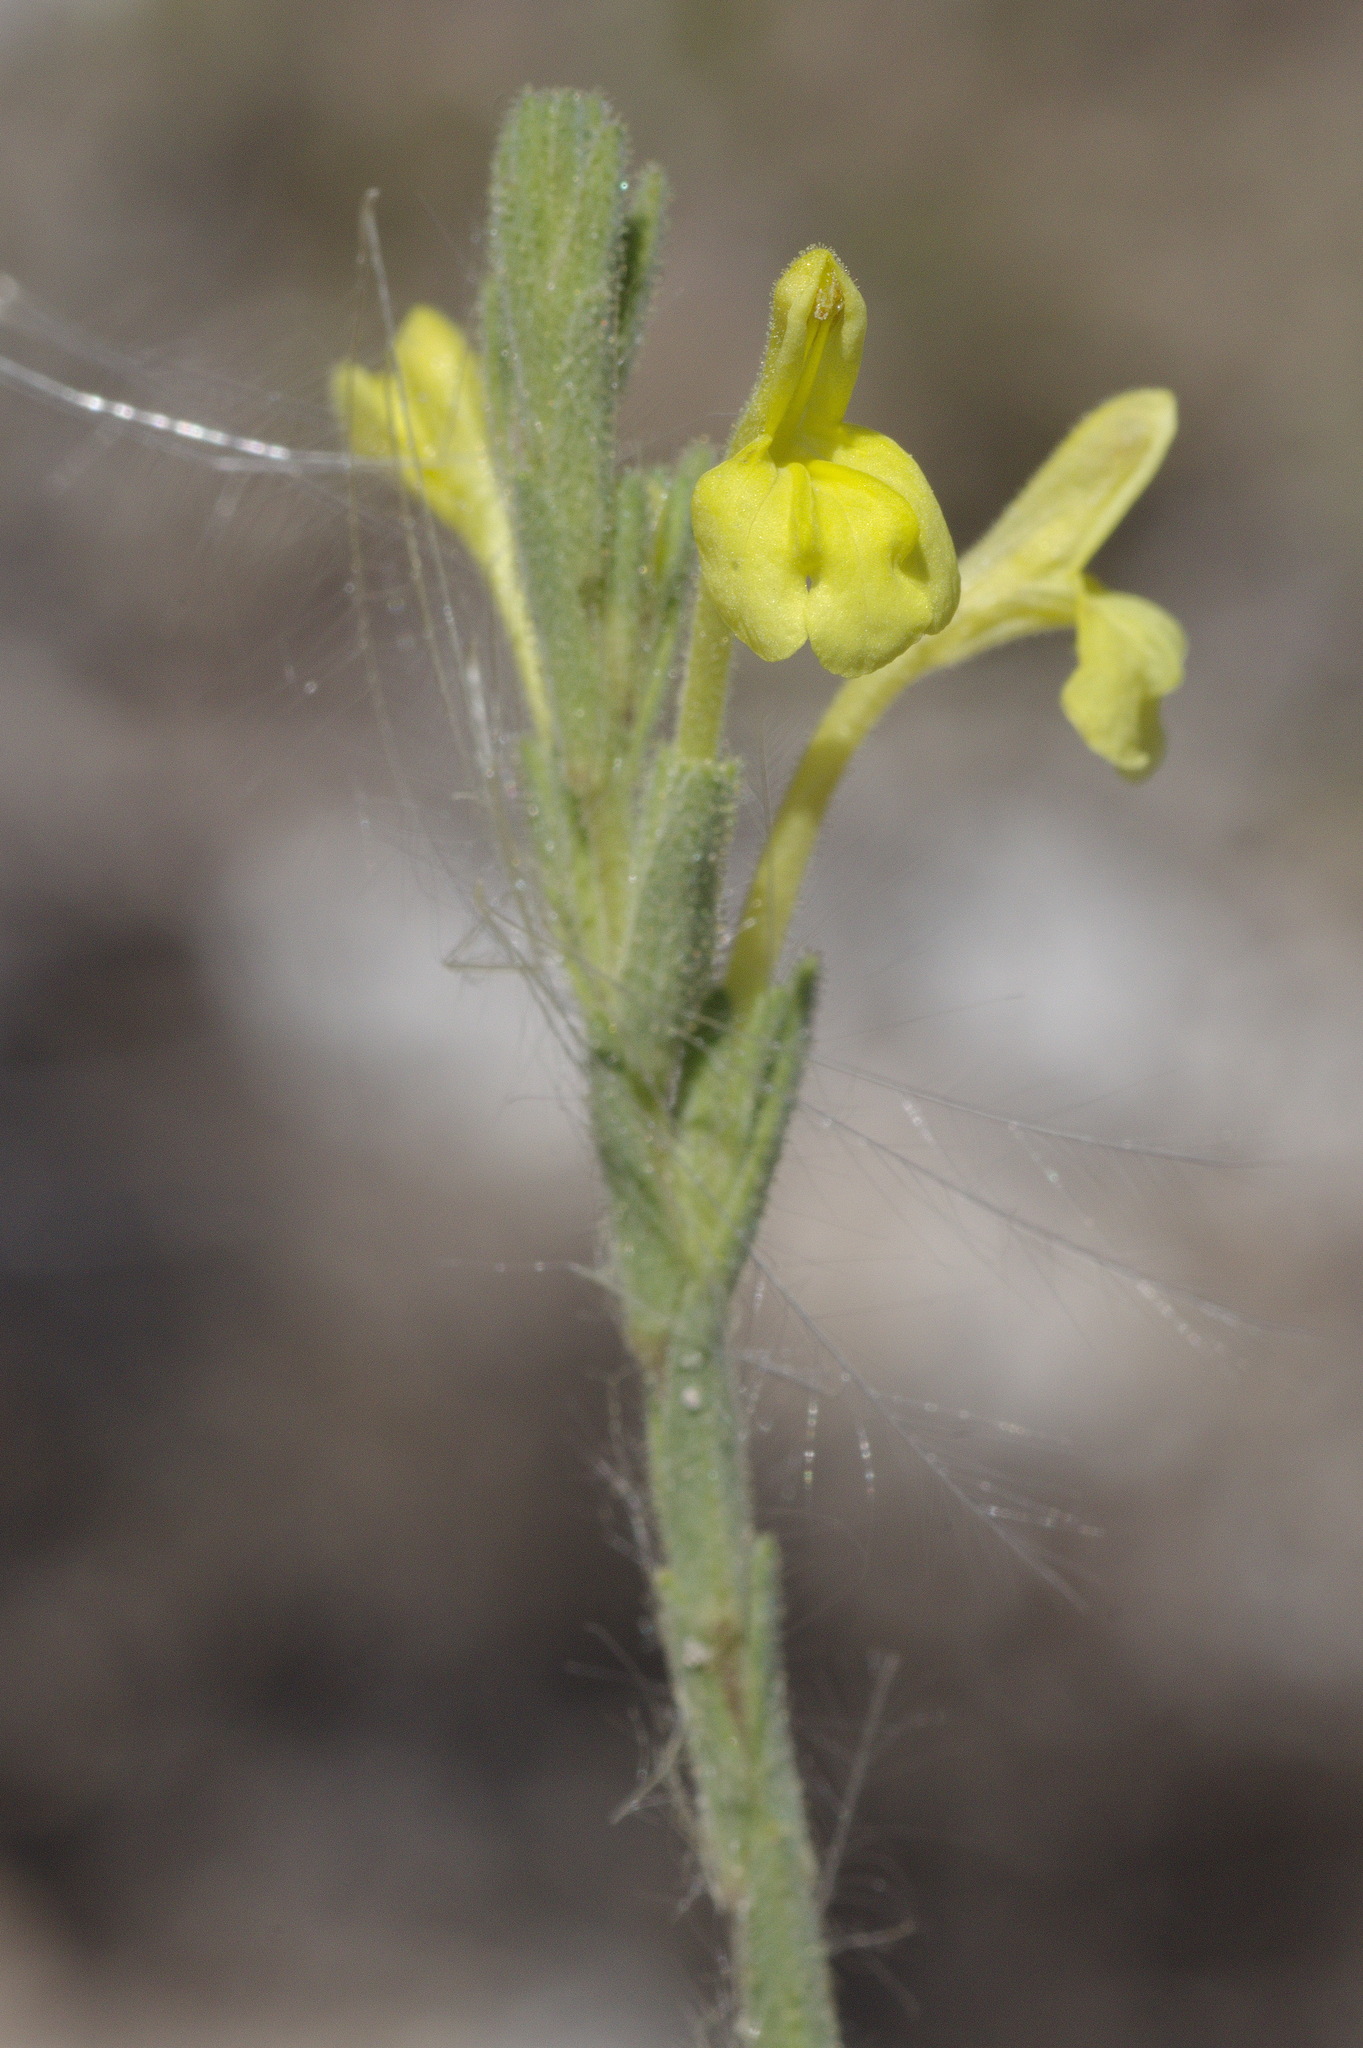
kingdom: Plantae
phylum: Tracheophyta
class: Magnoliopsida
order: Lamiales
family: Orobanchaceae
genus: Odontites
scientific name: Odontites longiflorus
